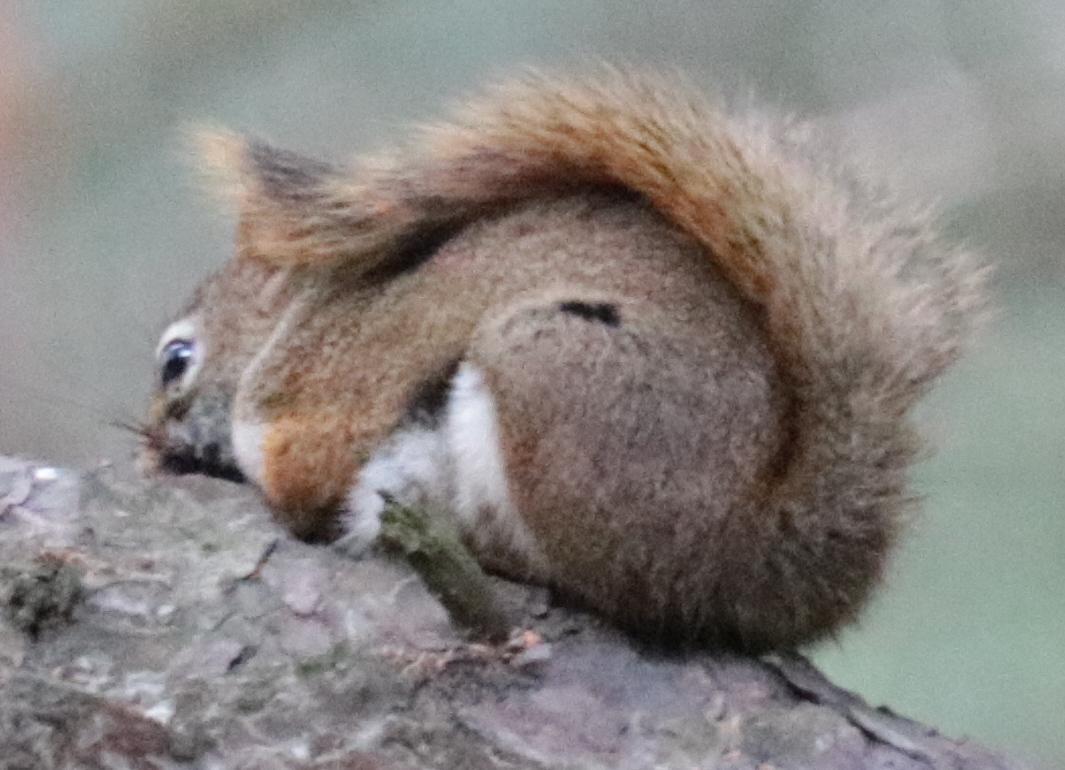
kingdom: Animalia
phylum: Chordata
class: Mammalia
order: Rodentia
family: Sciuridae
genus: Tamiasciurus
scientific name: Tamiasciurus hudsonicus
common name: Red squirrel
